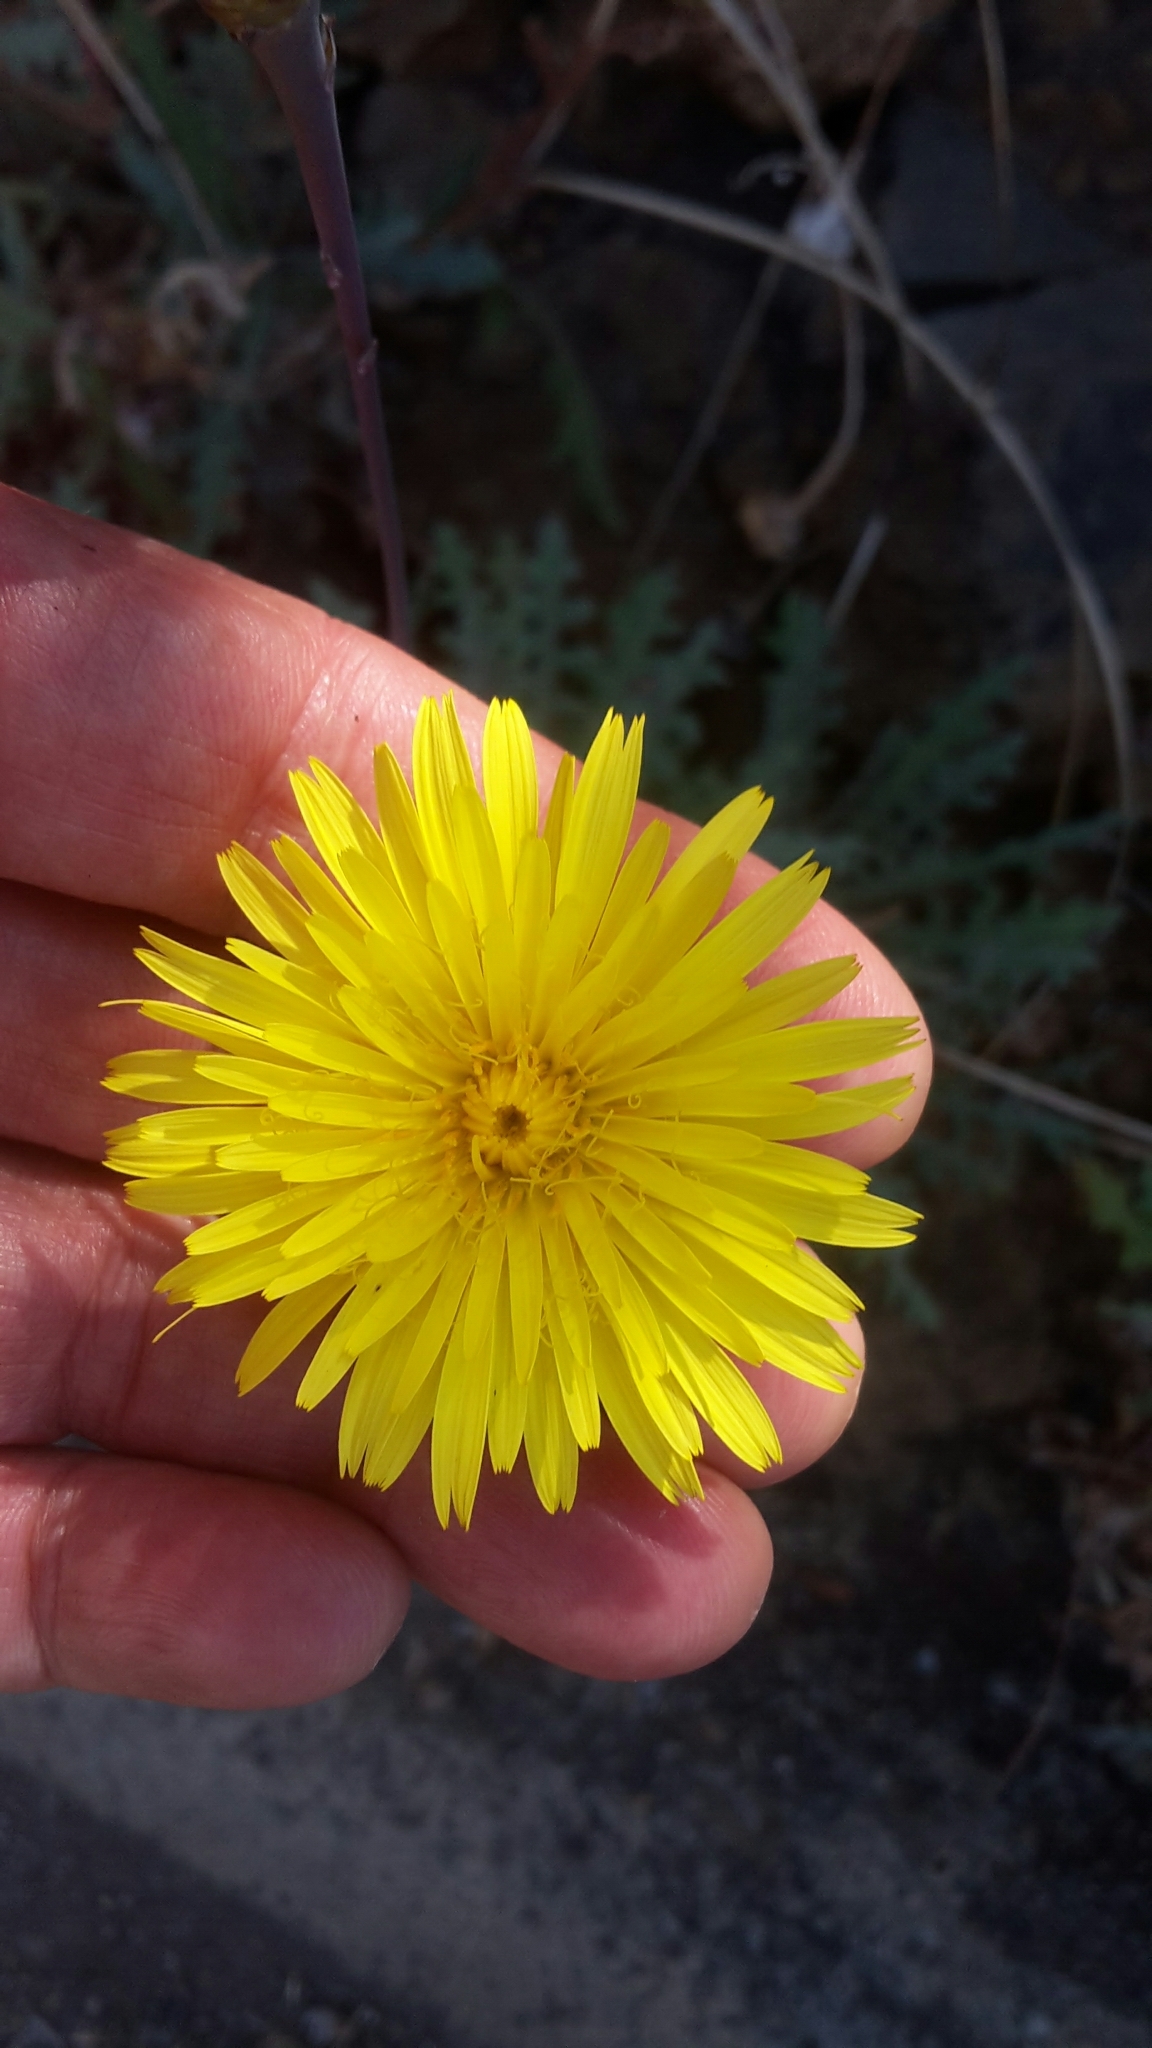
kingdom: Plantae
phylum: Tracheophyta
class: Magnoliopsida
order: Asterales
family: Asteraceae
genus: Reichardia
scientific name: Reichardia ligulata
